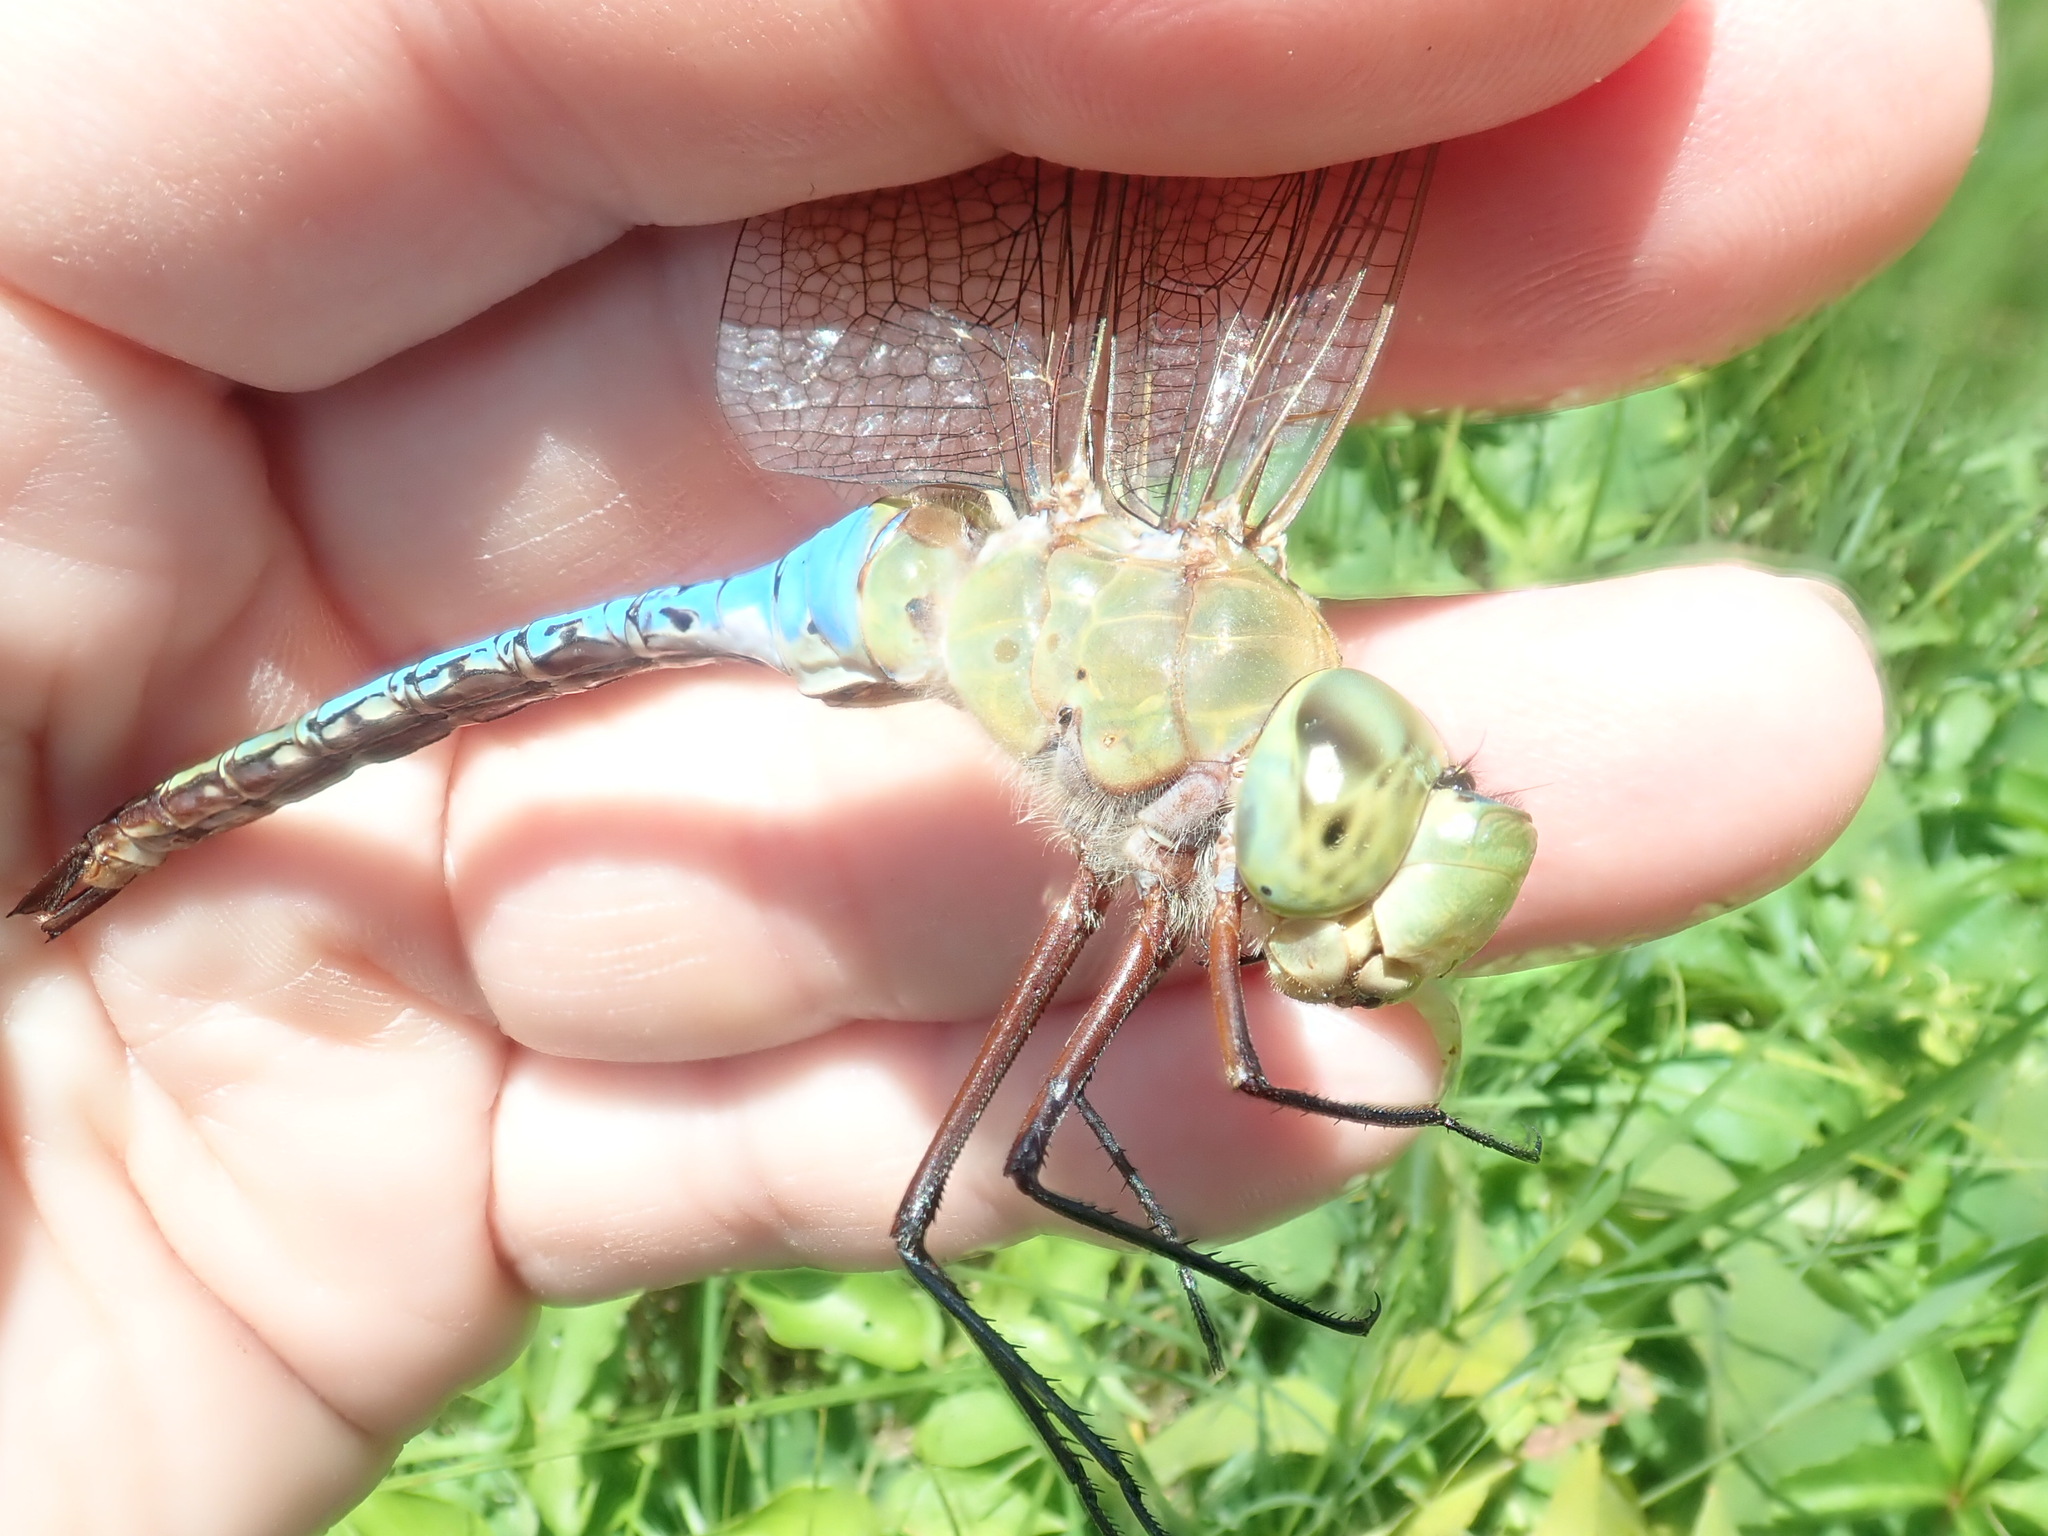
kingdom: Animalia
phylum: Arthropoda
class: Insecta
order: Odonata
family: Aeshnidae
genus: Anax
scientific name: Anax junius
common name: Common green darner
